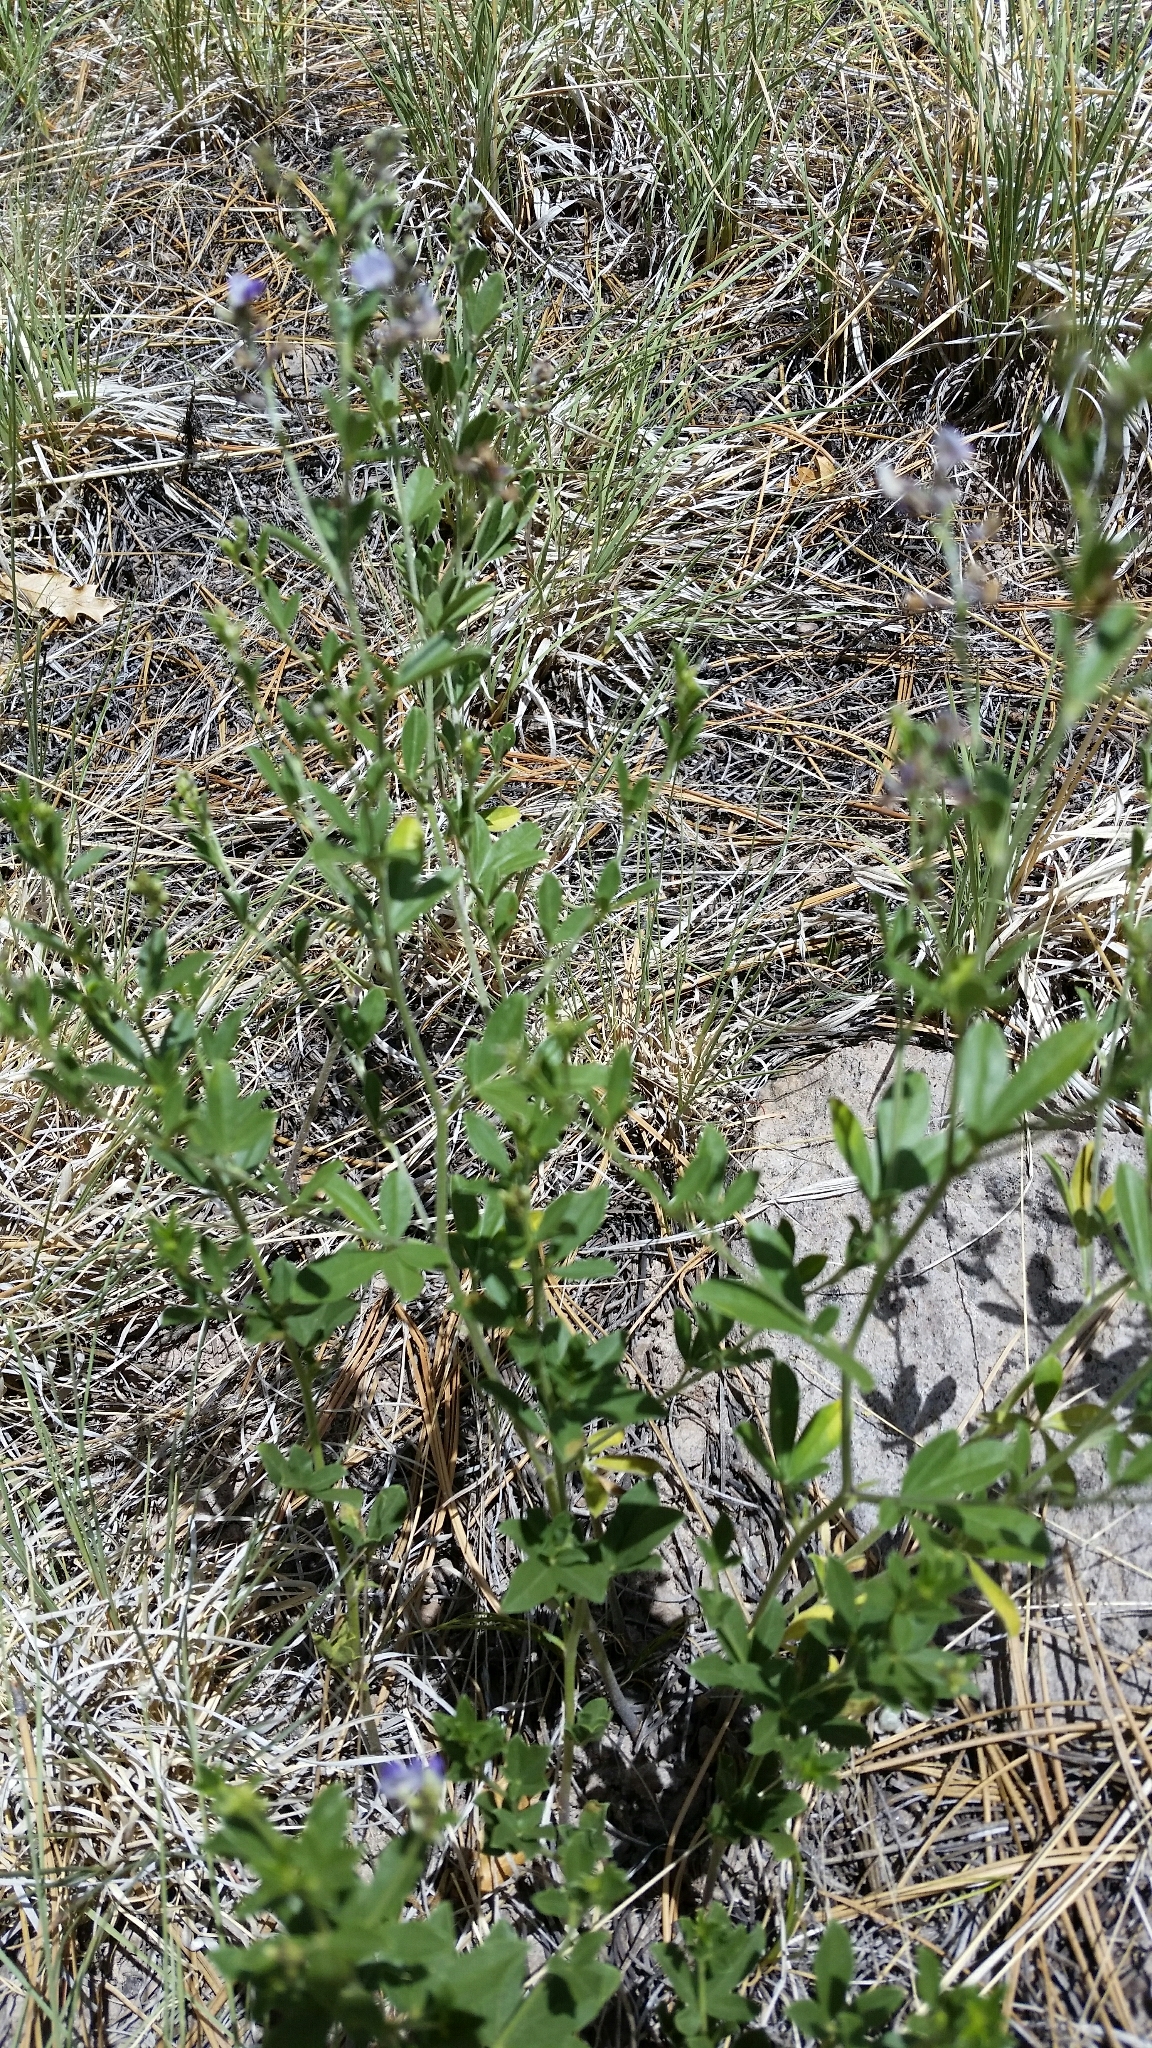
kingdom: Plantae
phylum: Tracheophyta
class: Magnoliopsida
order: Fabales
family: Fabaceae
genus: Pediomelum
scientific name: Pediomelum tenuiflorum
